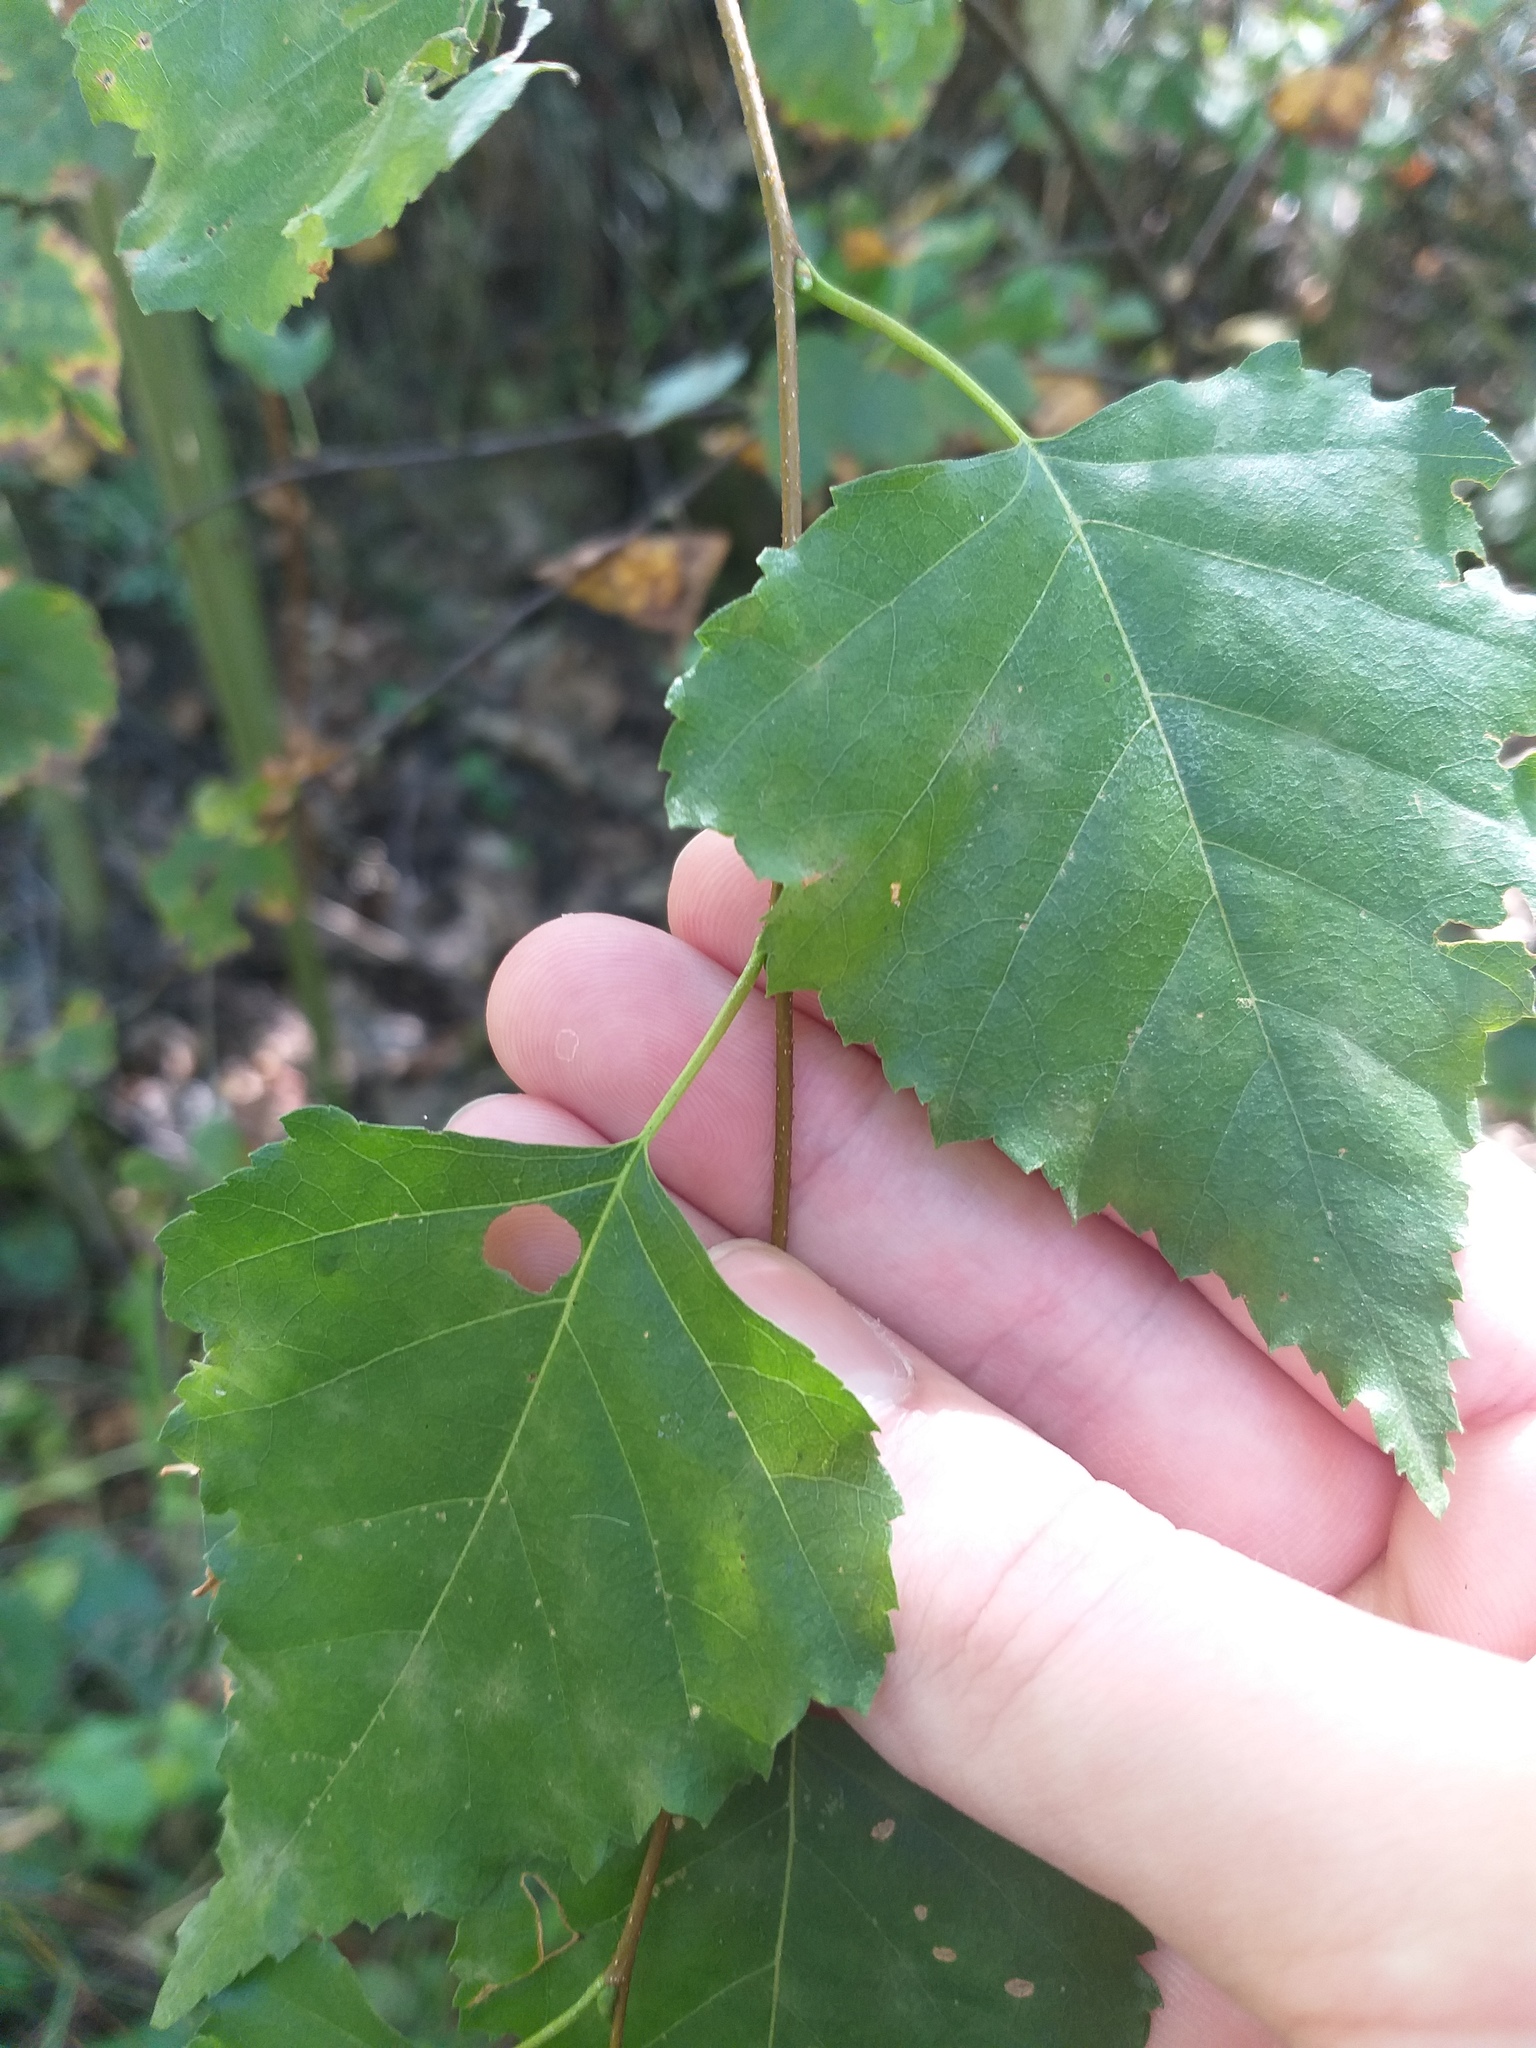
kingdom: Plantae
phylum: Tracheophyta
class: Magnoliopsida
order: Fagales
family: Betulaceae
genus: Betula
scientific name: Betula pendula
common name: Silver birch
